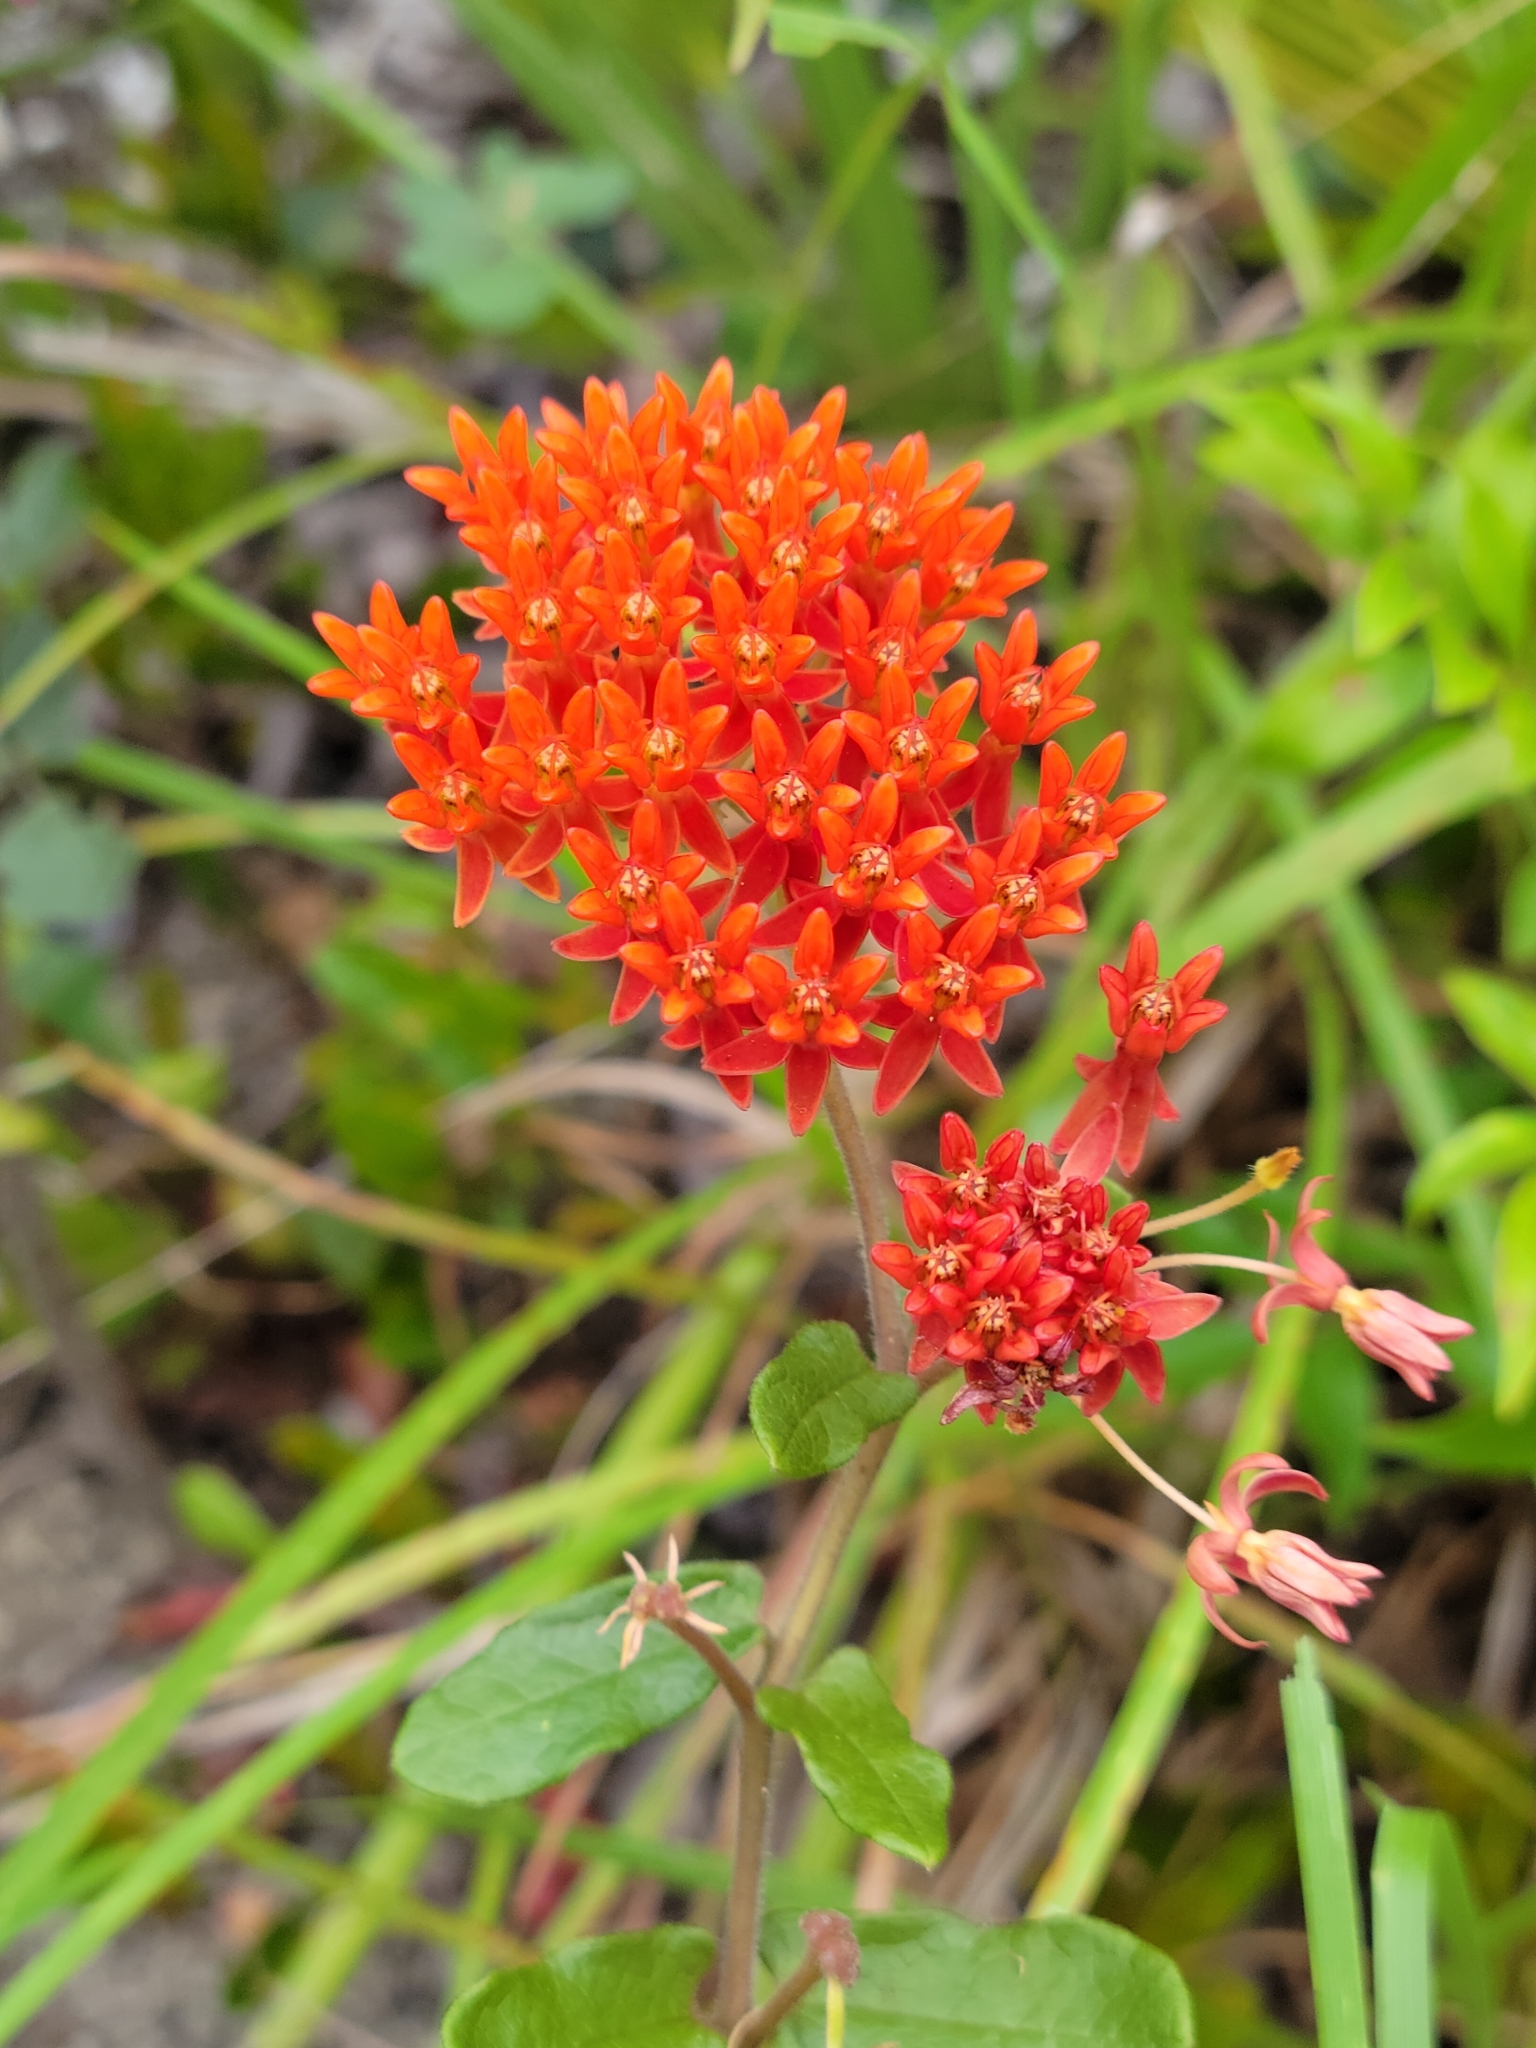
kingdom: Plantae
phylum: Tracheophyta
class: Magnoliopsida
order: Gentianales
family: Apocynaceae
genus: Asclepias
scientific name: Asclepias tuberosa
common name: Butterfly milkweed
